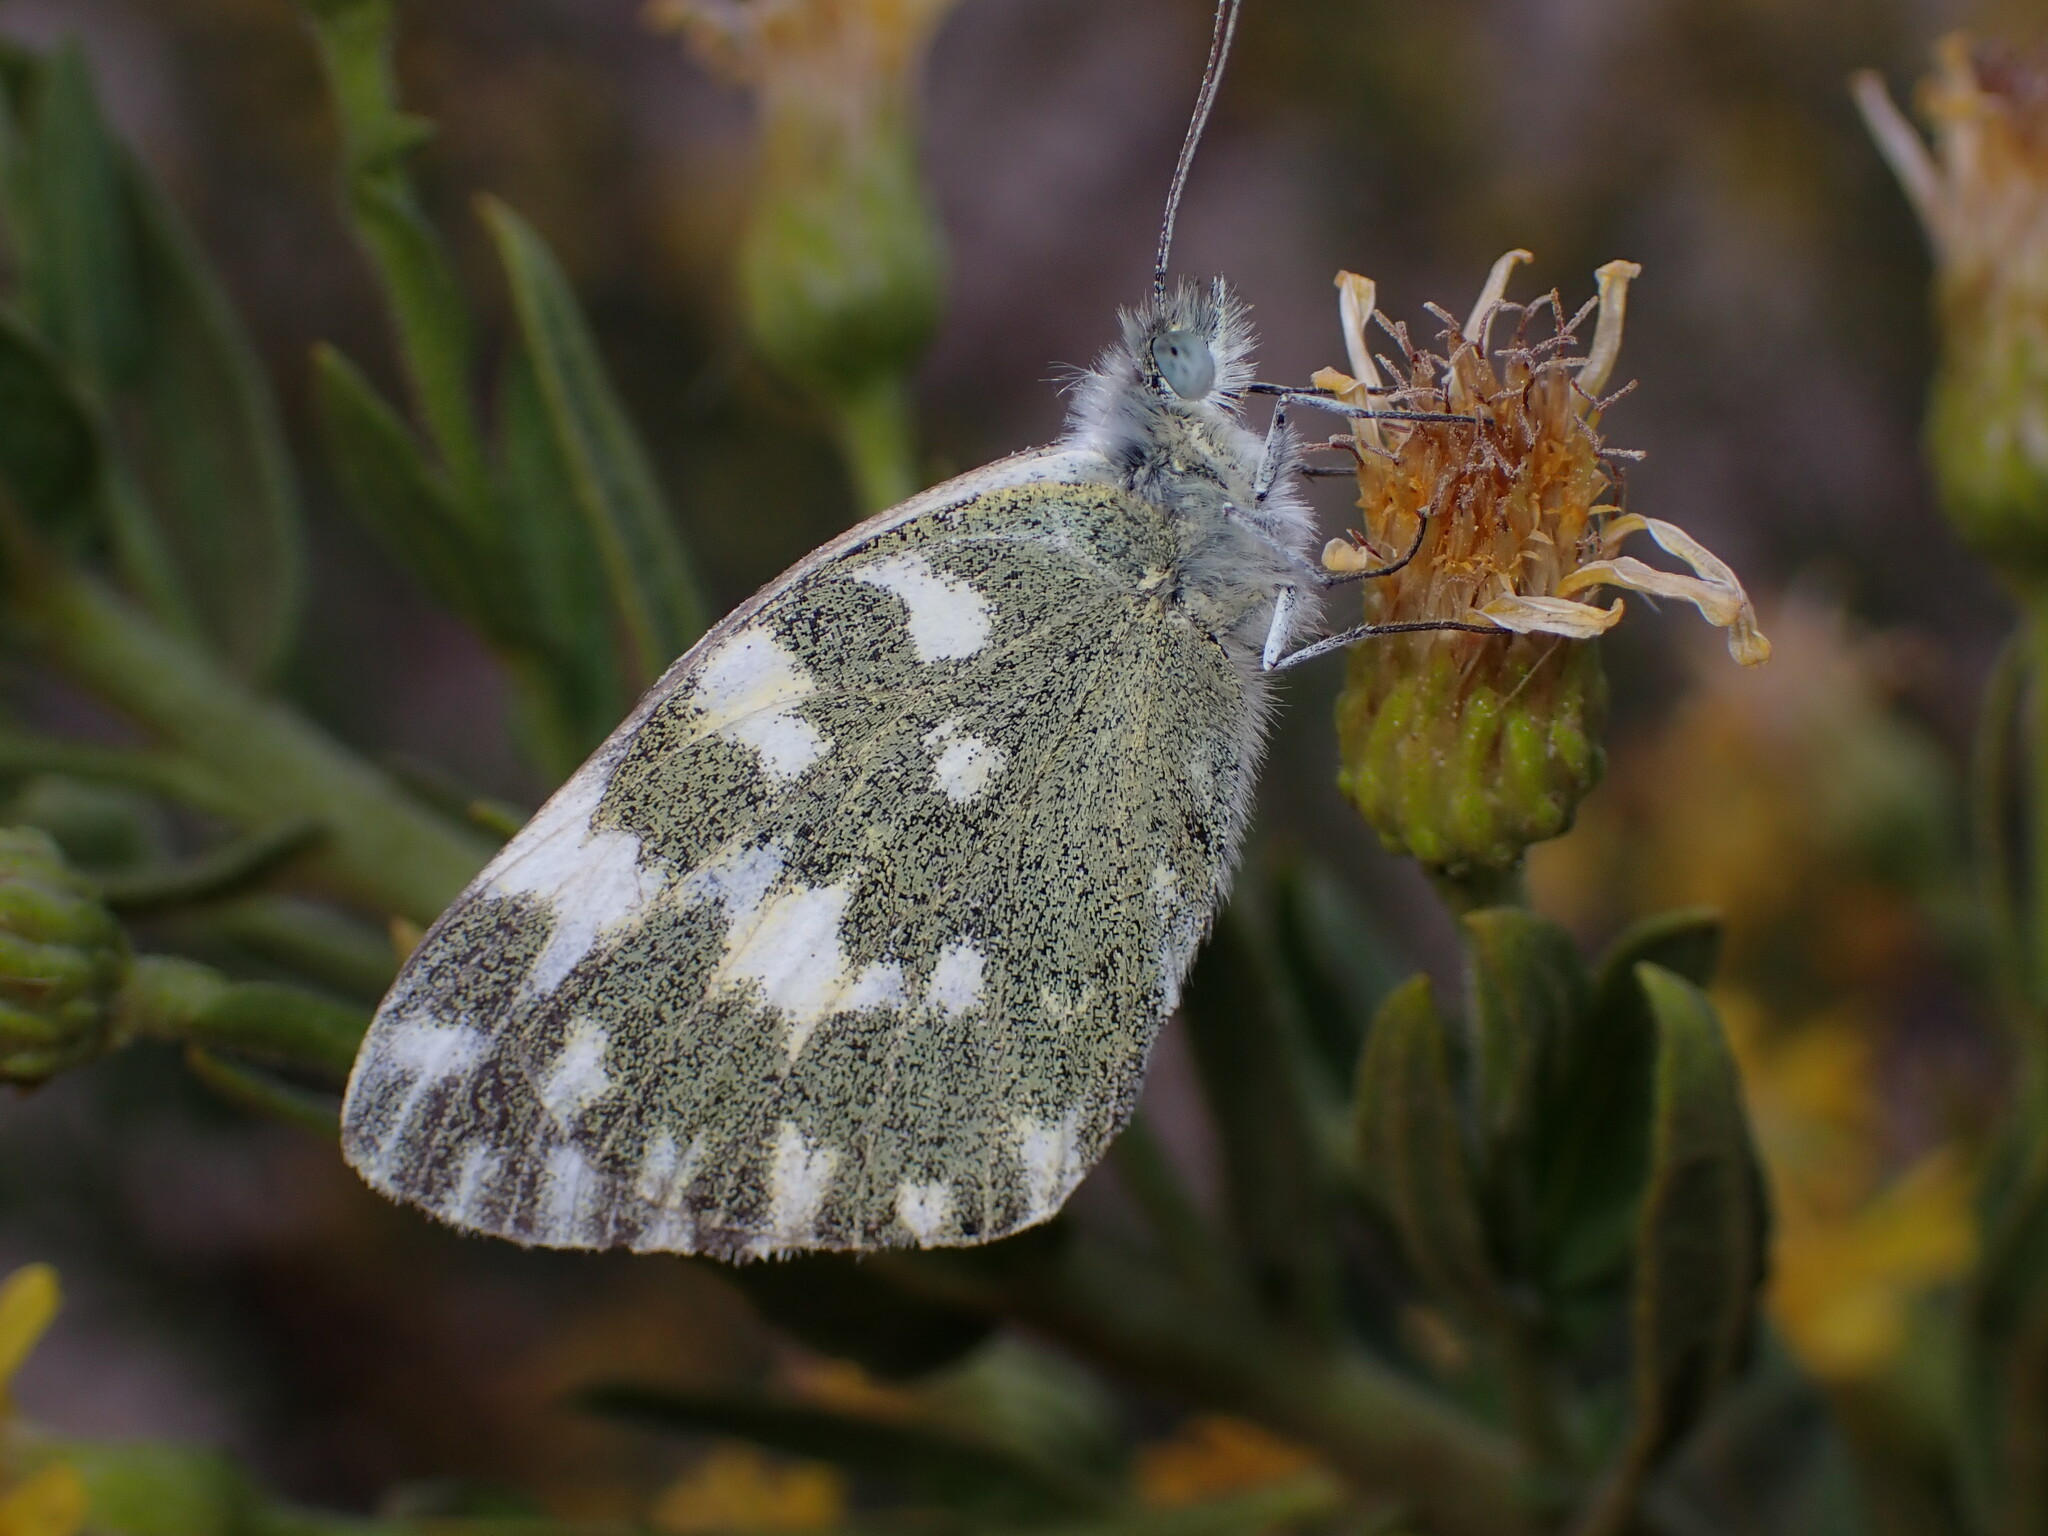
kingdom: Animalia
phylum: Arthropoda
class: Insecta
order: Lepidoptera
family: Pieridae
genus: Pontia
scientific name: Pontia daplidice
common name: Bath white
